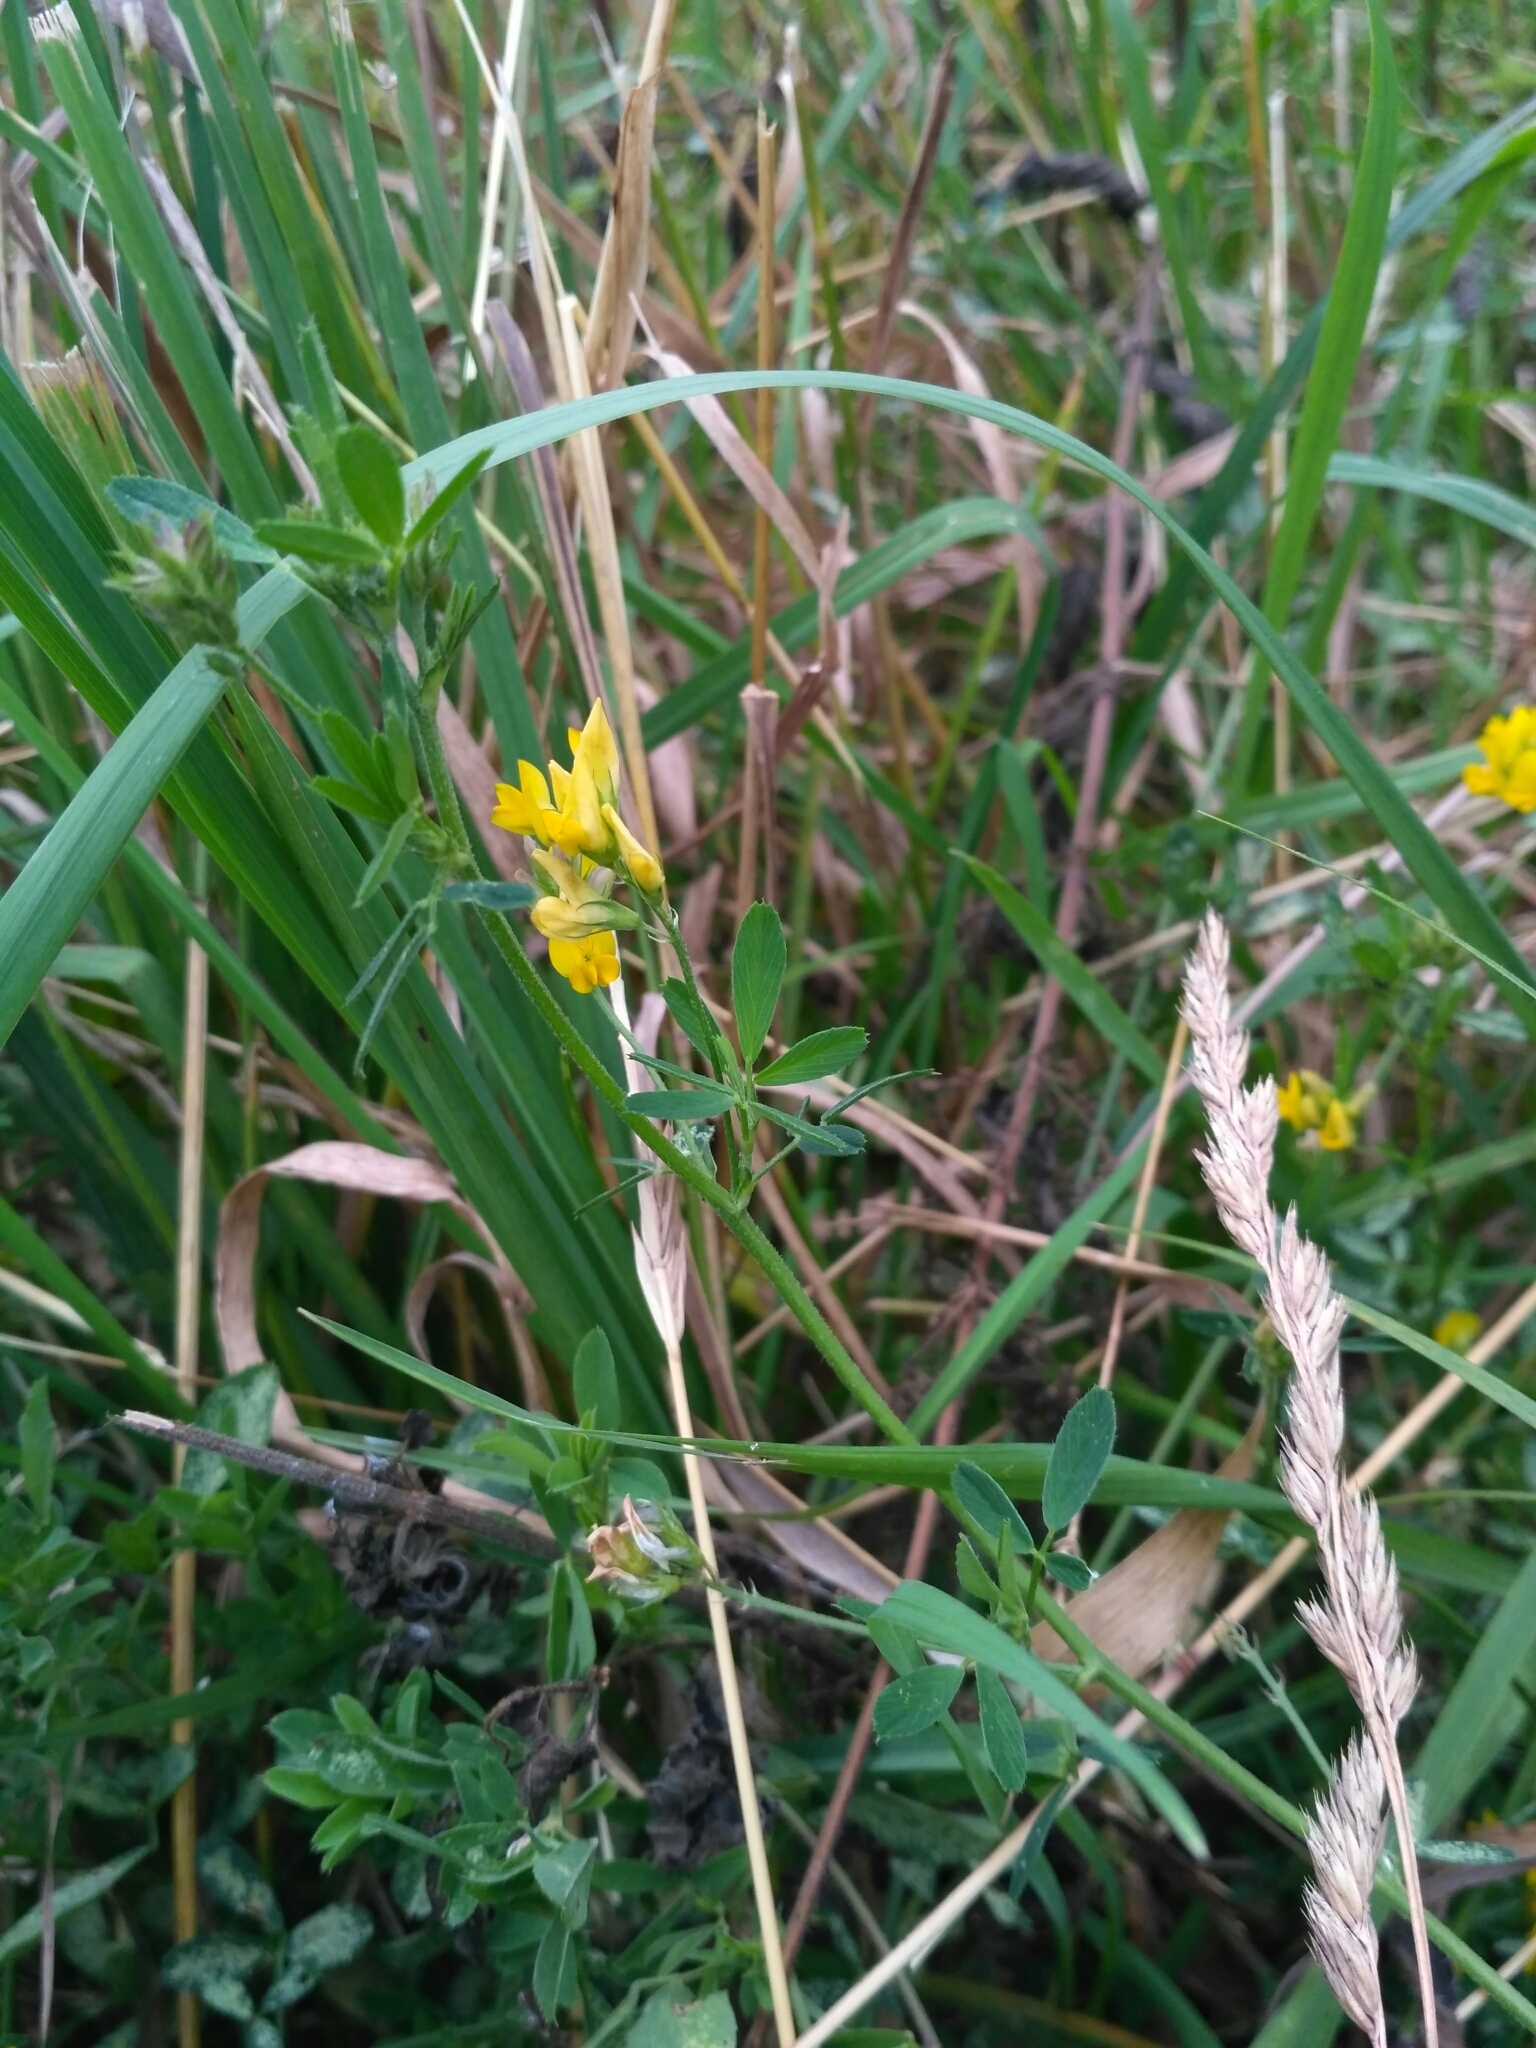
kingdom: Plantae
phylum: Tracheophyta
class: Magnoliopsida
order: Fabales
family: Fabaceae
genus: Medicago
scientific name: Medicago falcata
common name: Sickle medick
